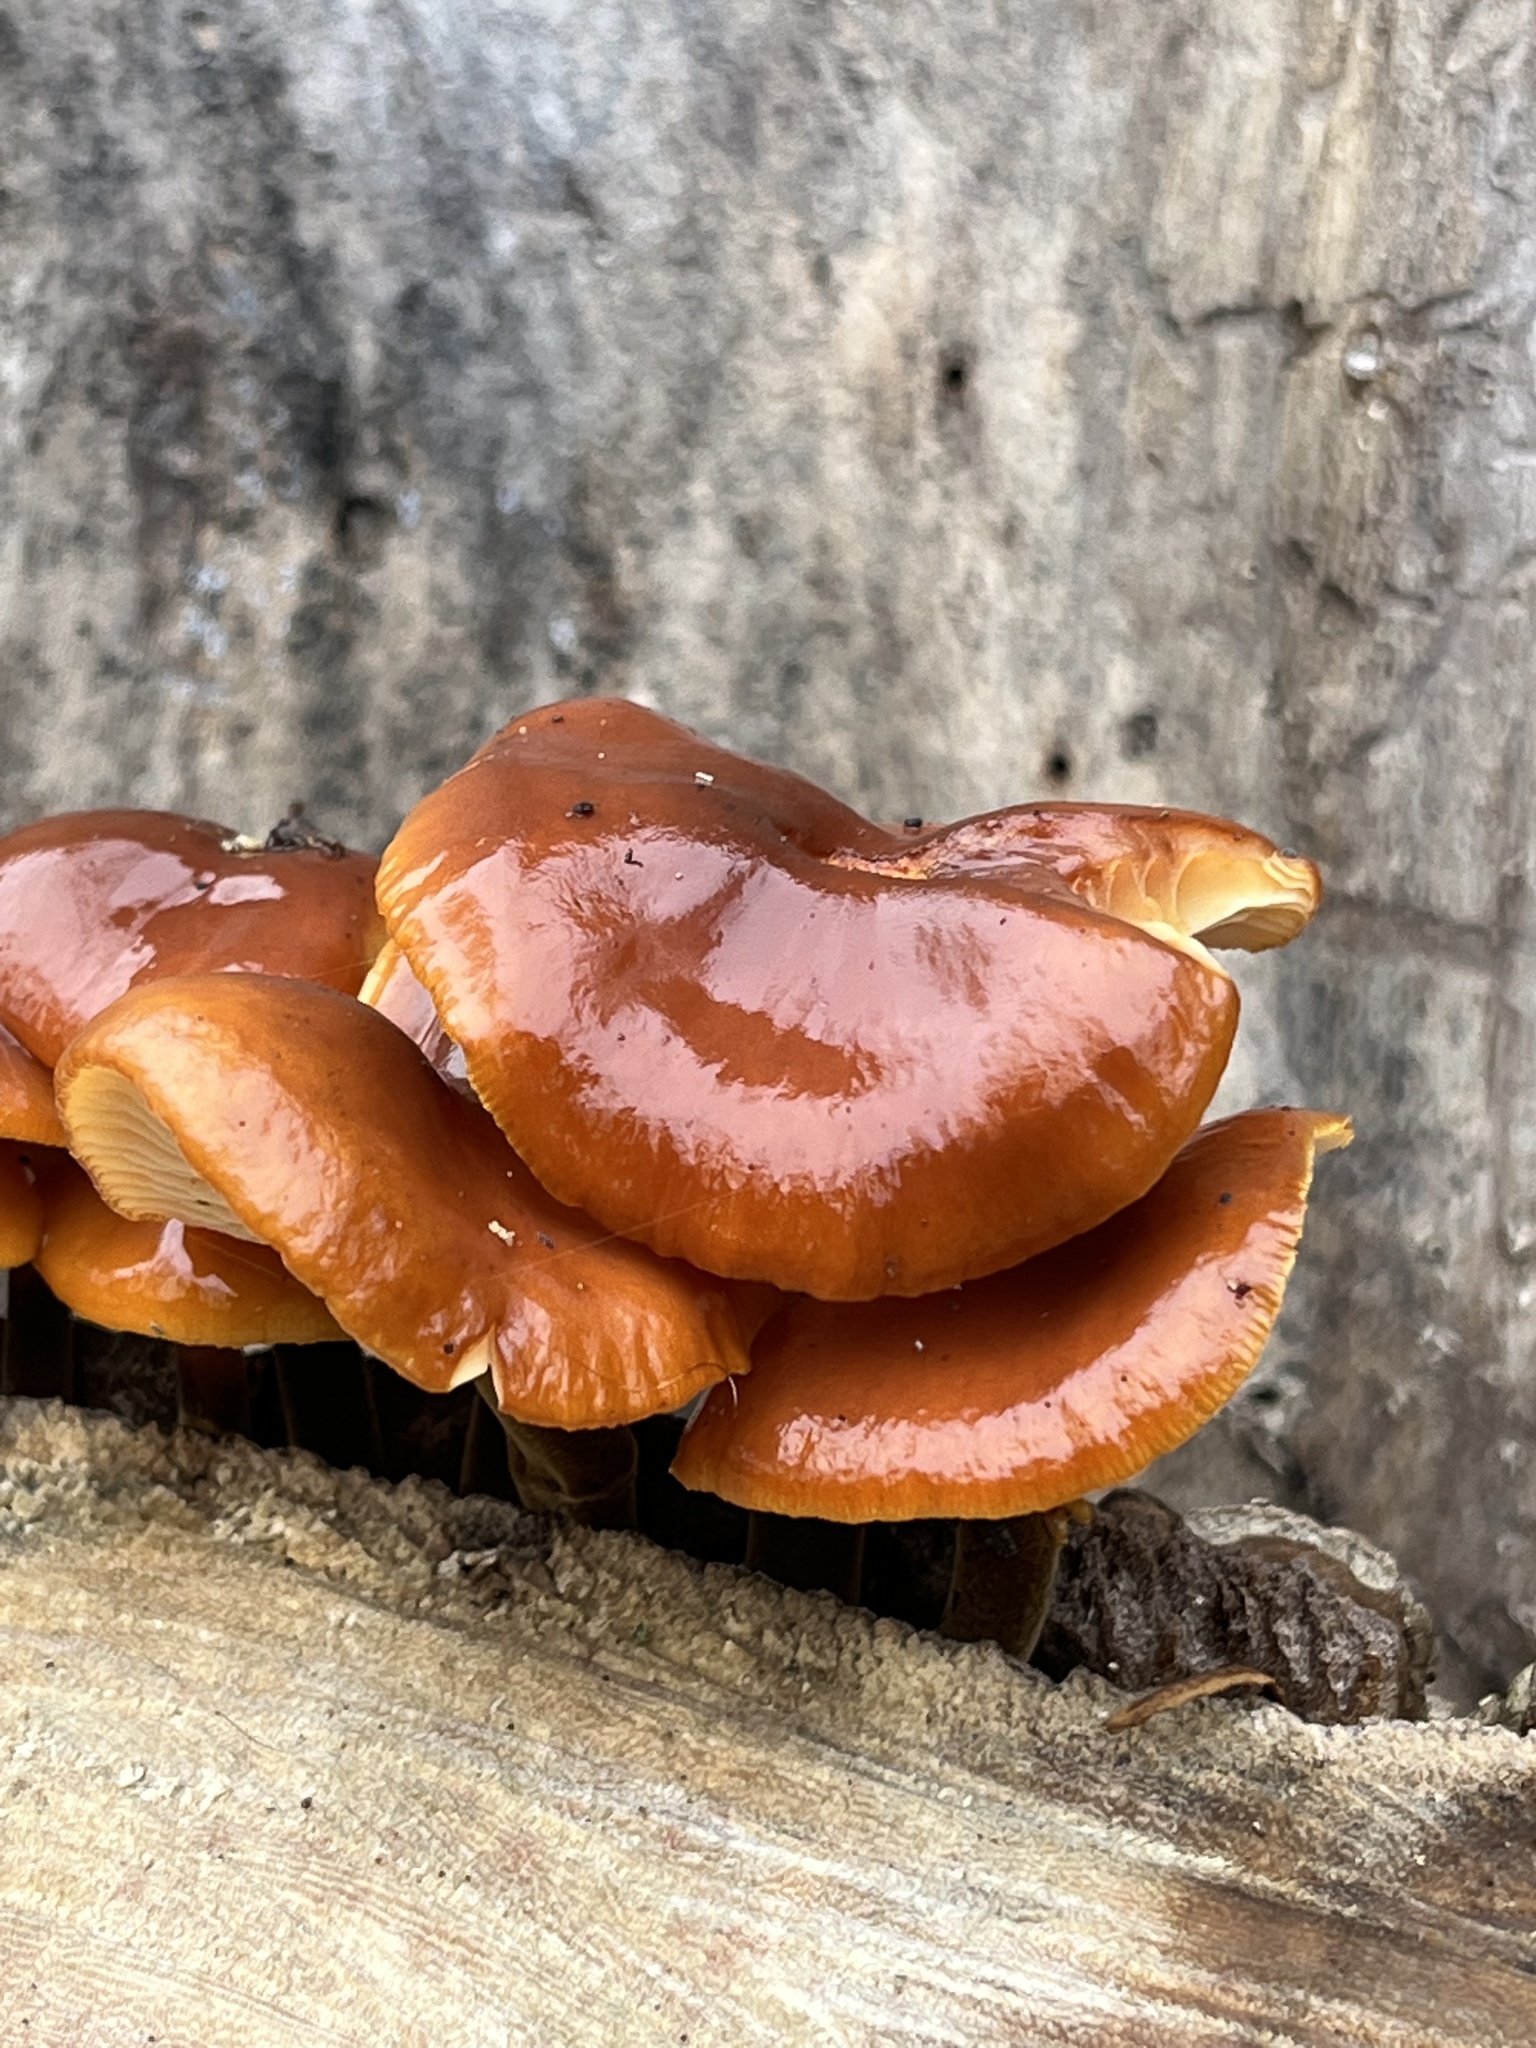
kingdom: Fungi
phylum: Basidiomycota
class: Agaricomycetes
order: Agaricales
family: Physalacriaceae
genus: Flammulina
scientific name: Flammulina velutipes
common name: Velvet shank
